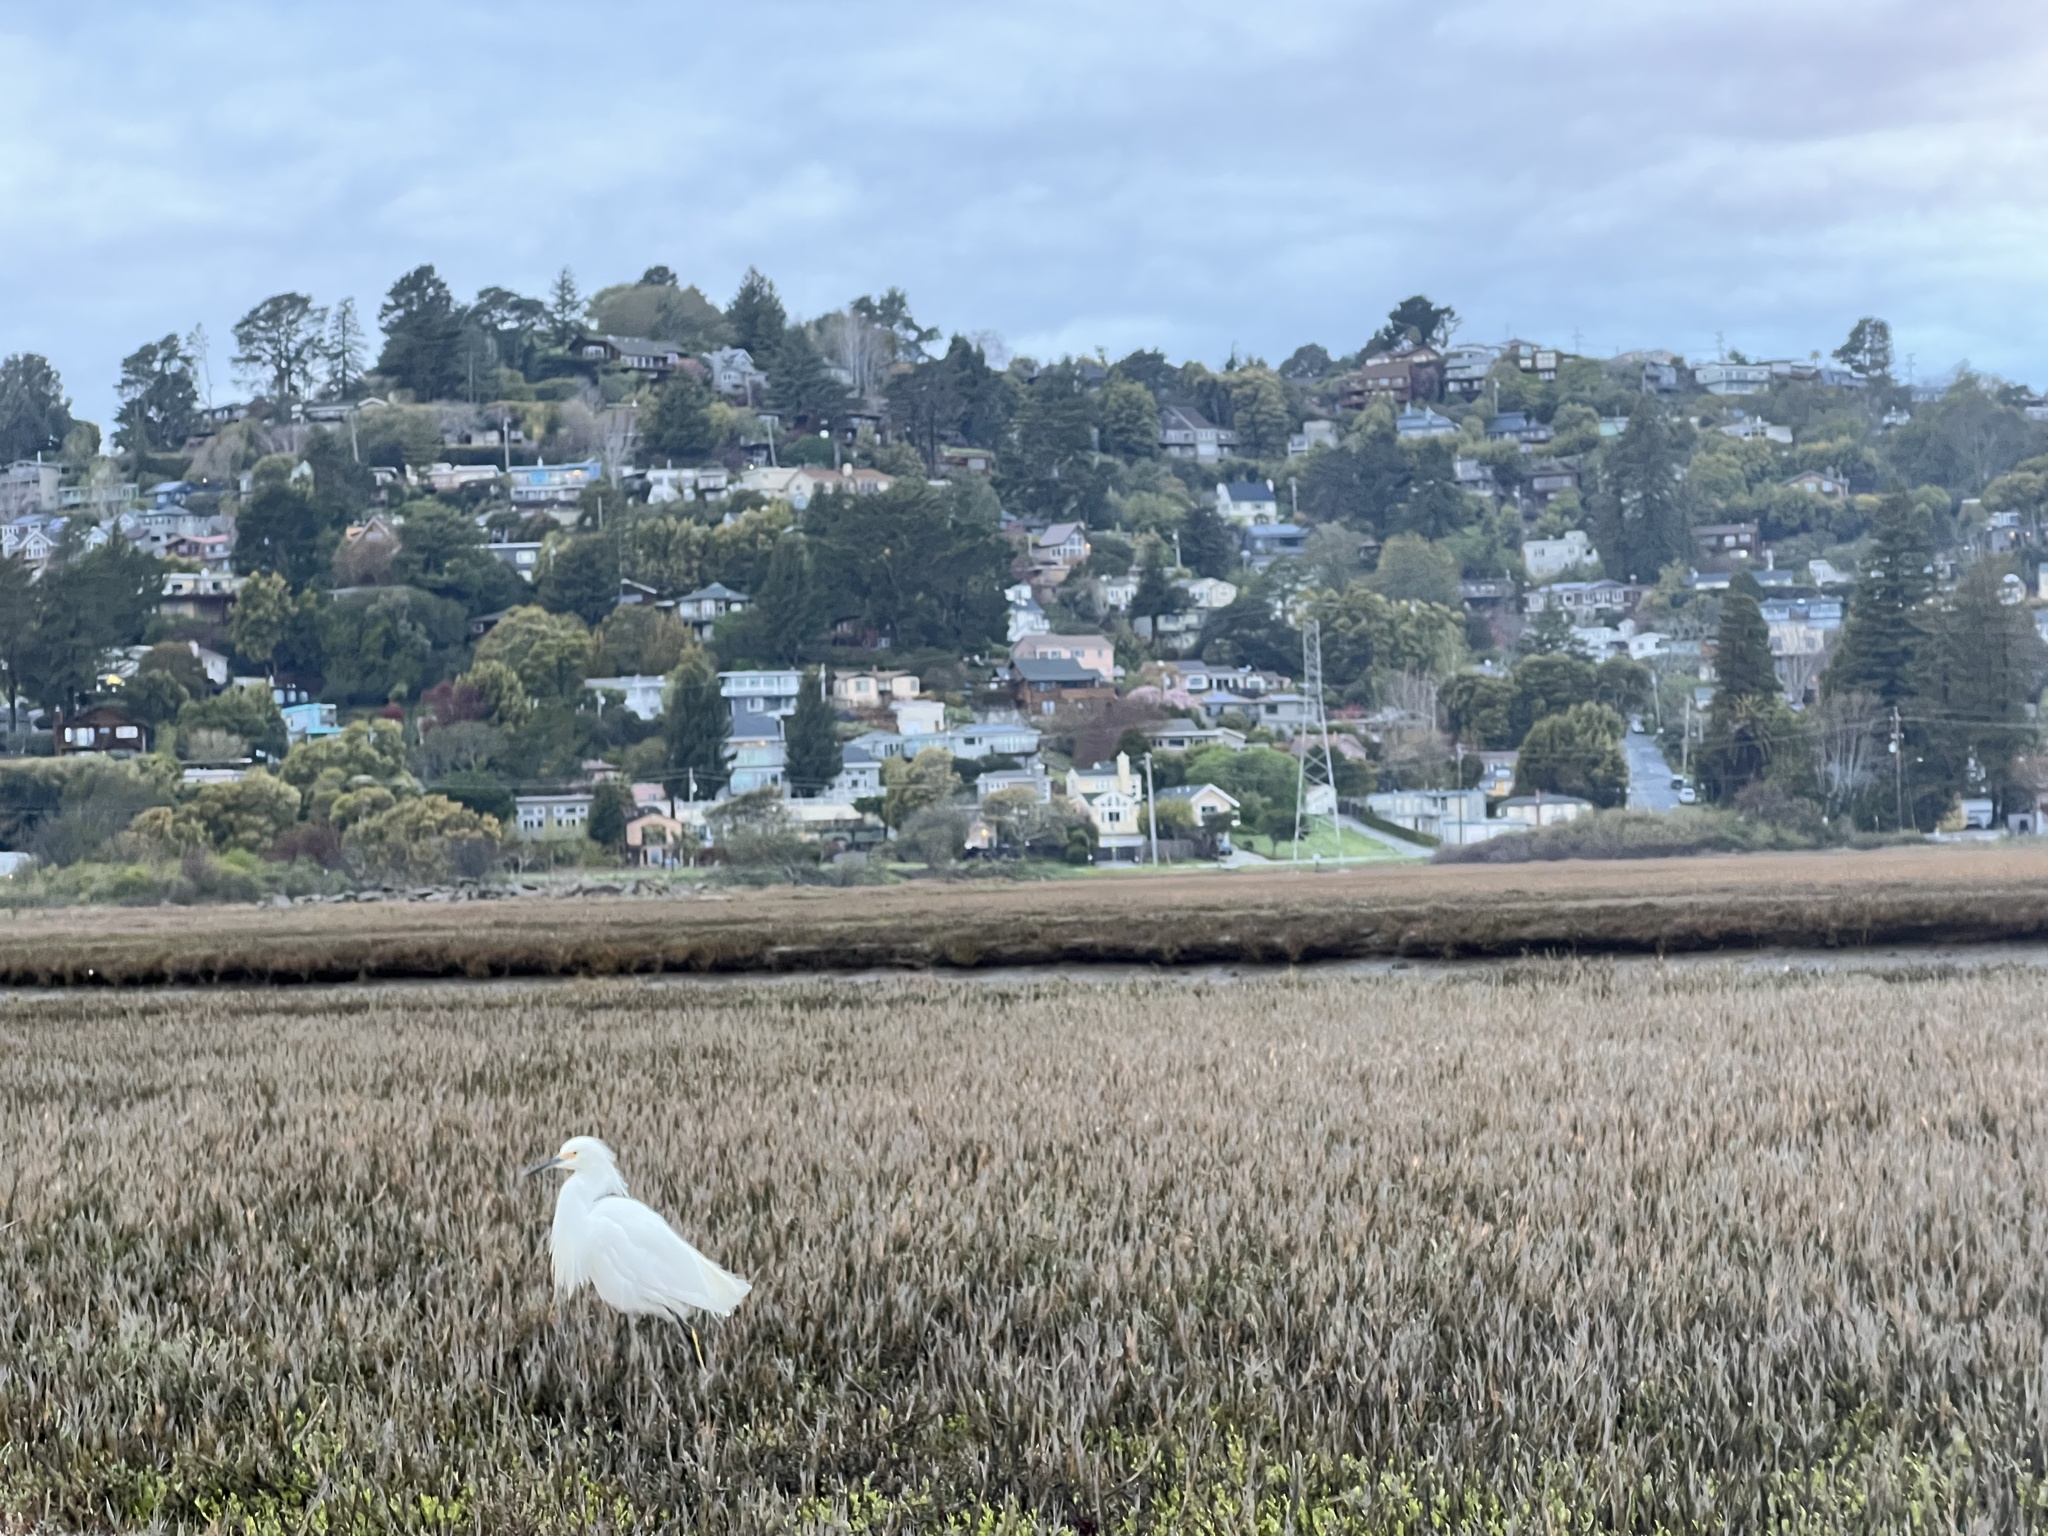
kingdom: Animalia
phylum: Chordata
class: Aves
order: Pelecaniformes
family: Ardeidae
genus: Egretta
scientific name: Egretta thula
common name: Snowy egret
